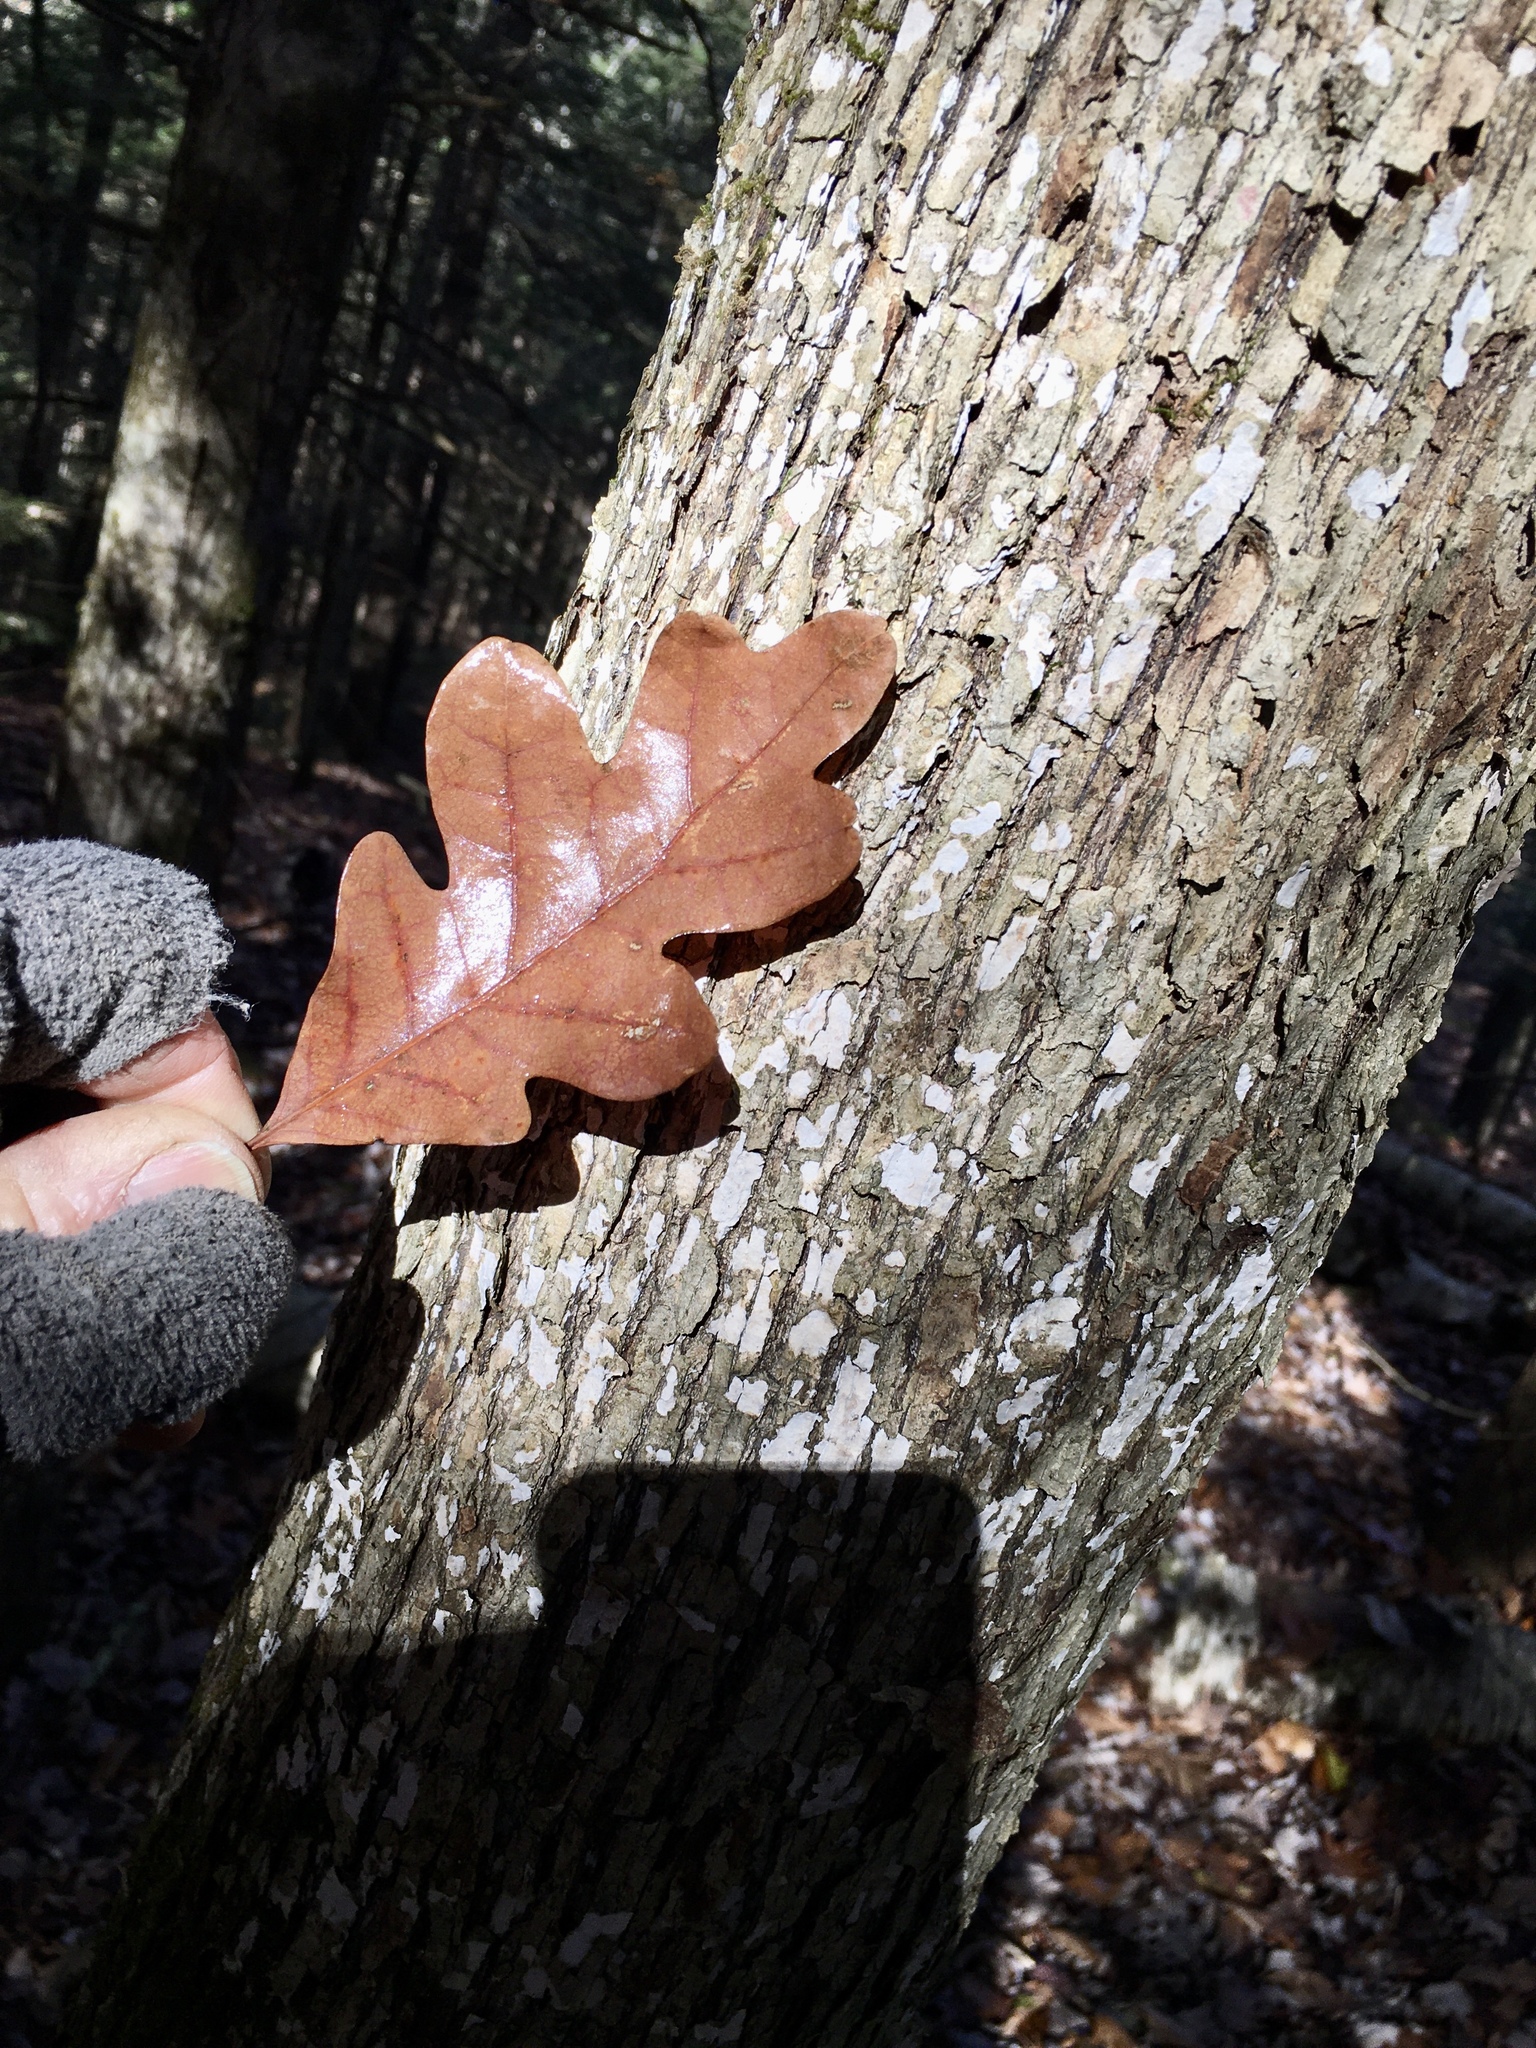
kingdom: Plantae
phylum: Tracheophyta
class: Magnoliopsida
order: Fagales
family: Fagaceae
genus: Quercus
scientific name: Quercus alba
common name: White oak
